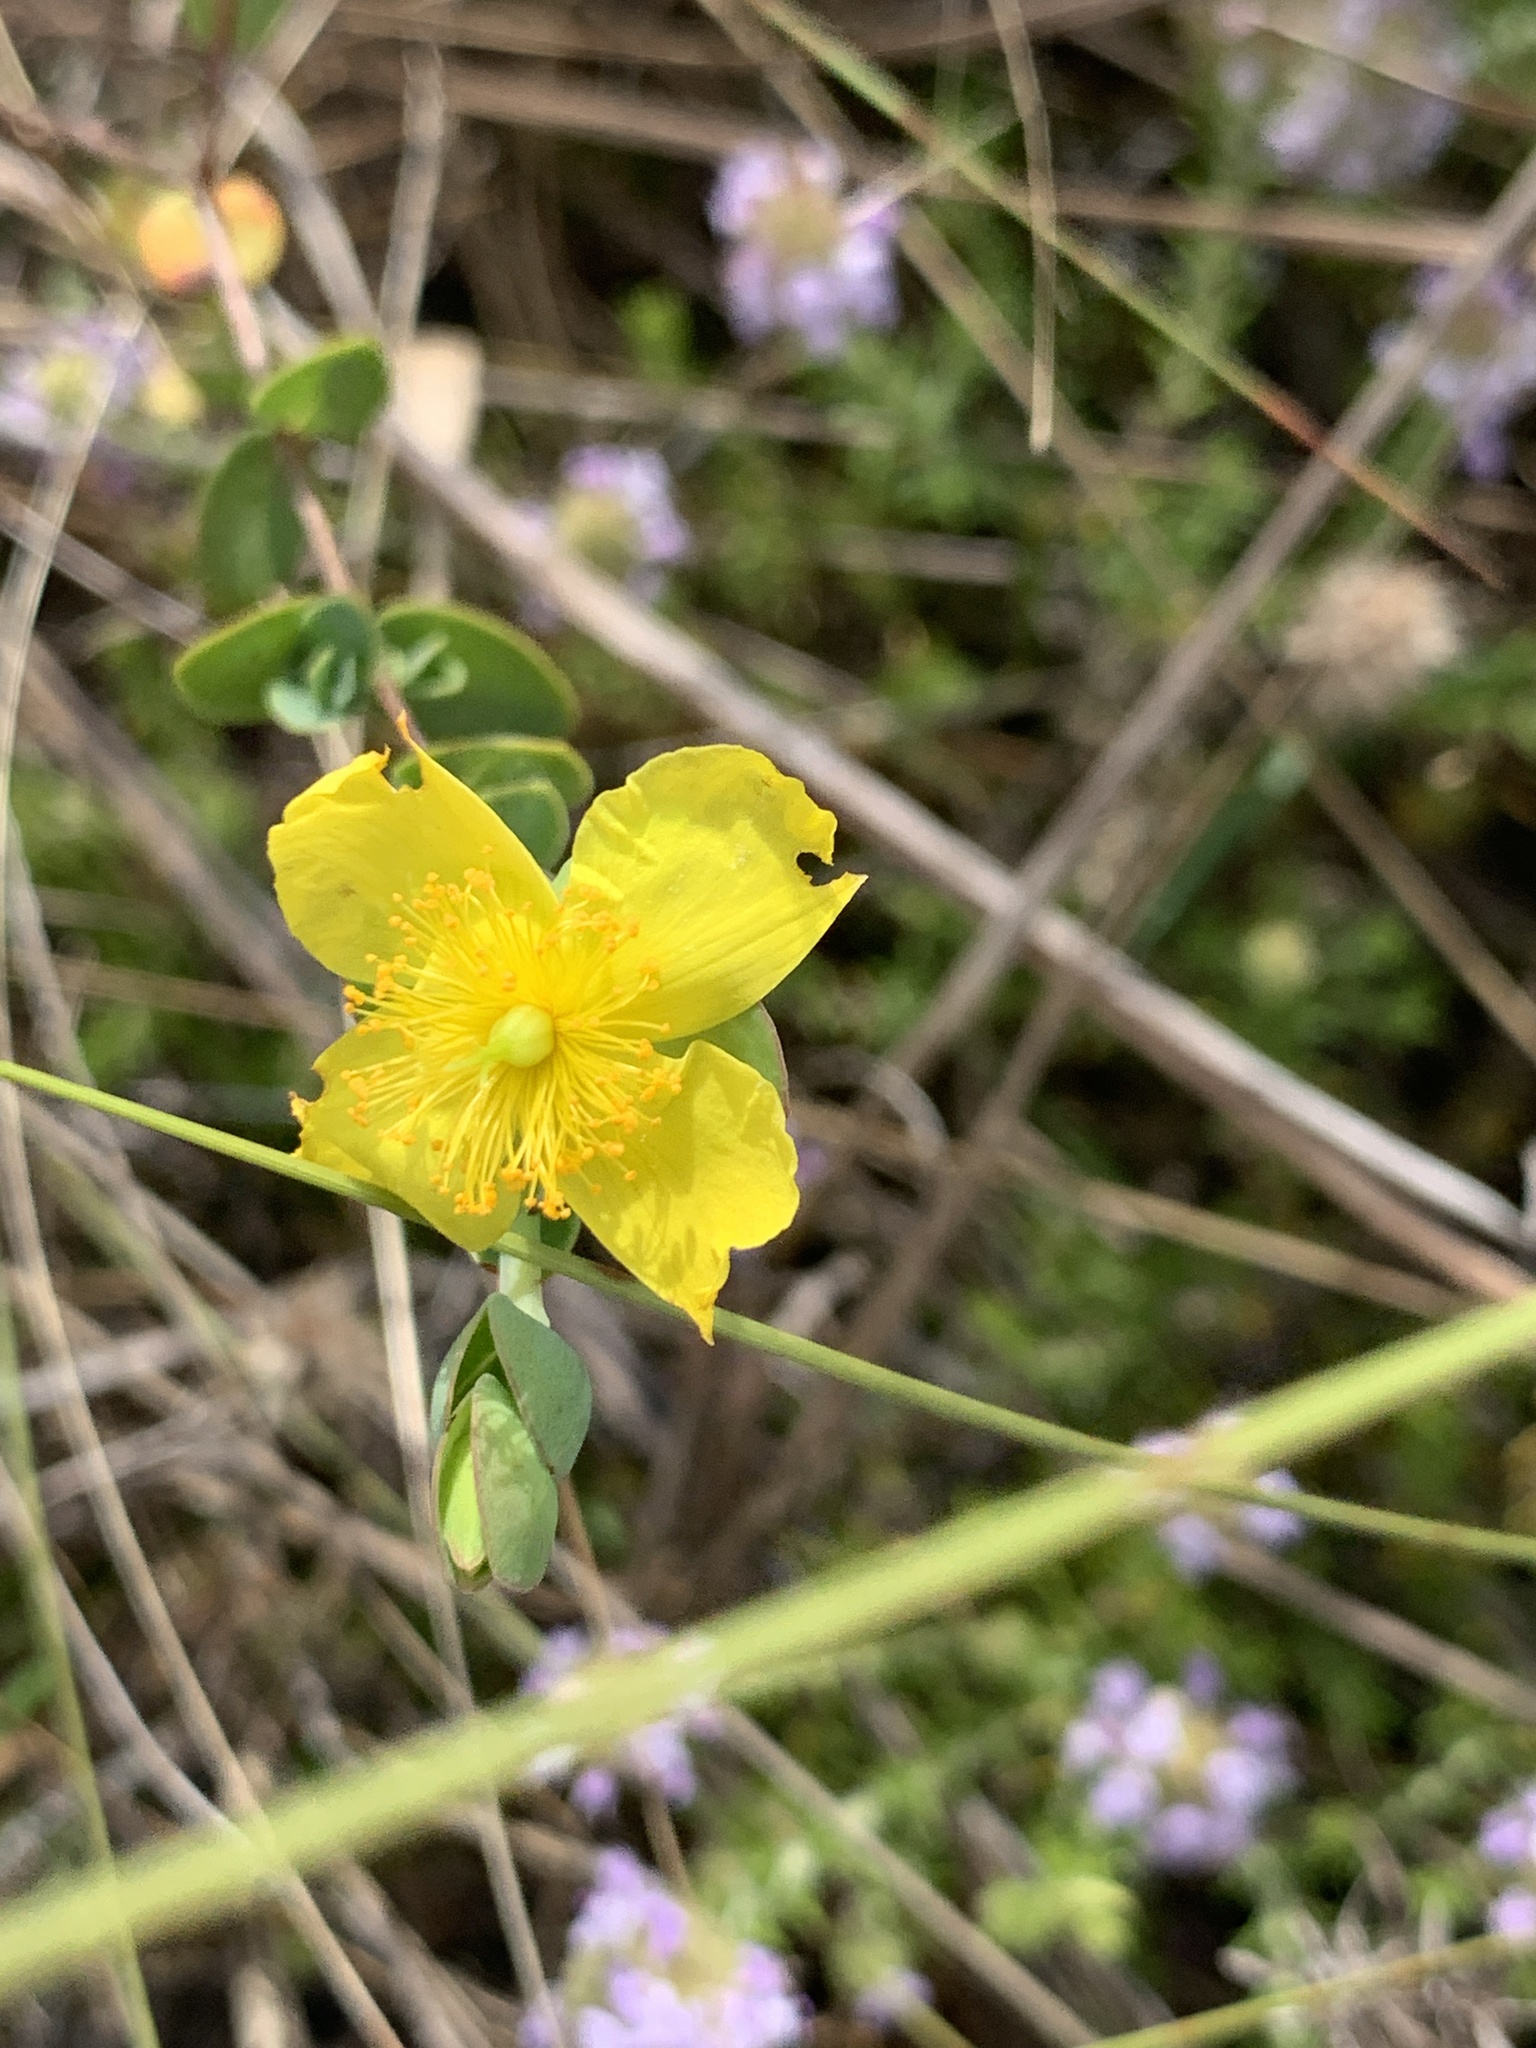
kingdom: Plantae
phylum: Tracheophyta
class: Magnoliopsida
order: Malpighiales
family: Hypericaceae
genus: Hypericum
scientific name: Hypericum tetrapetalum
